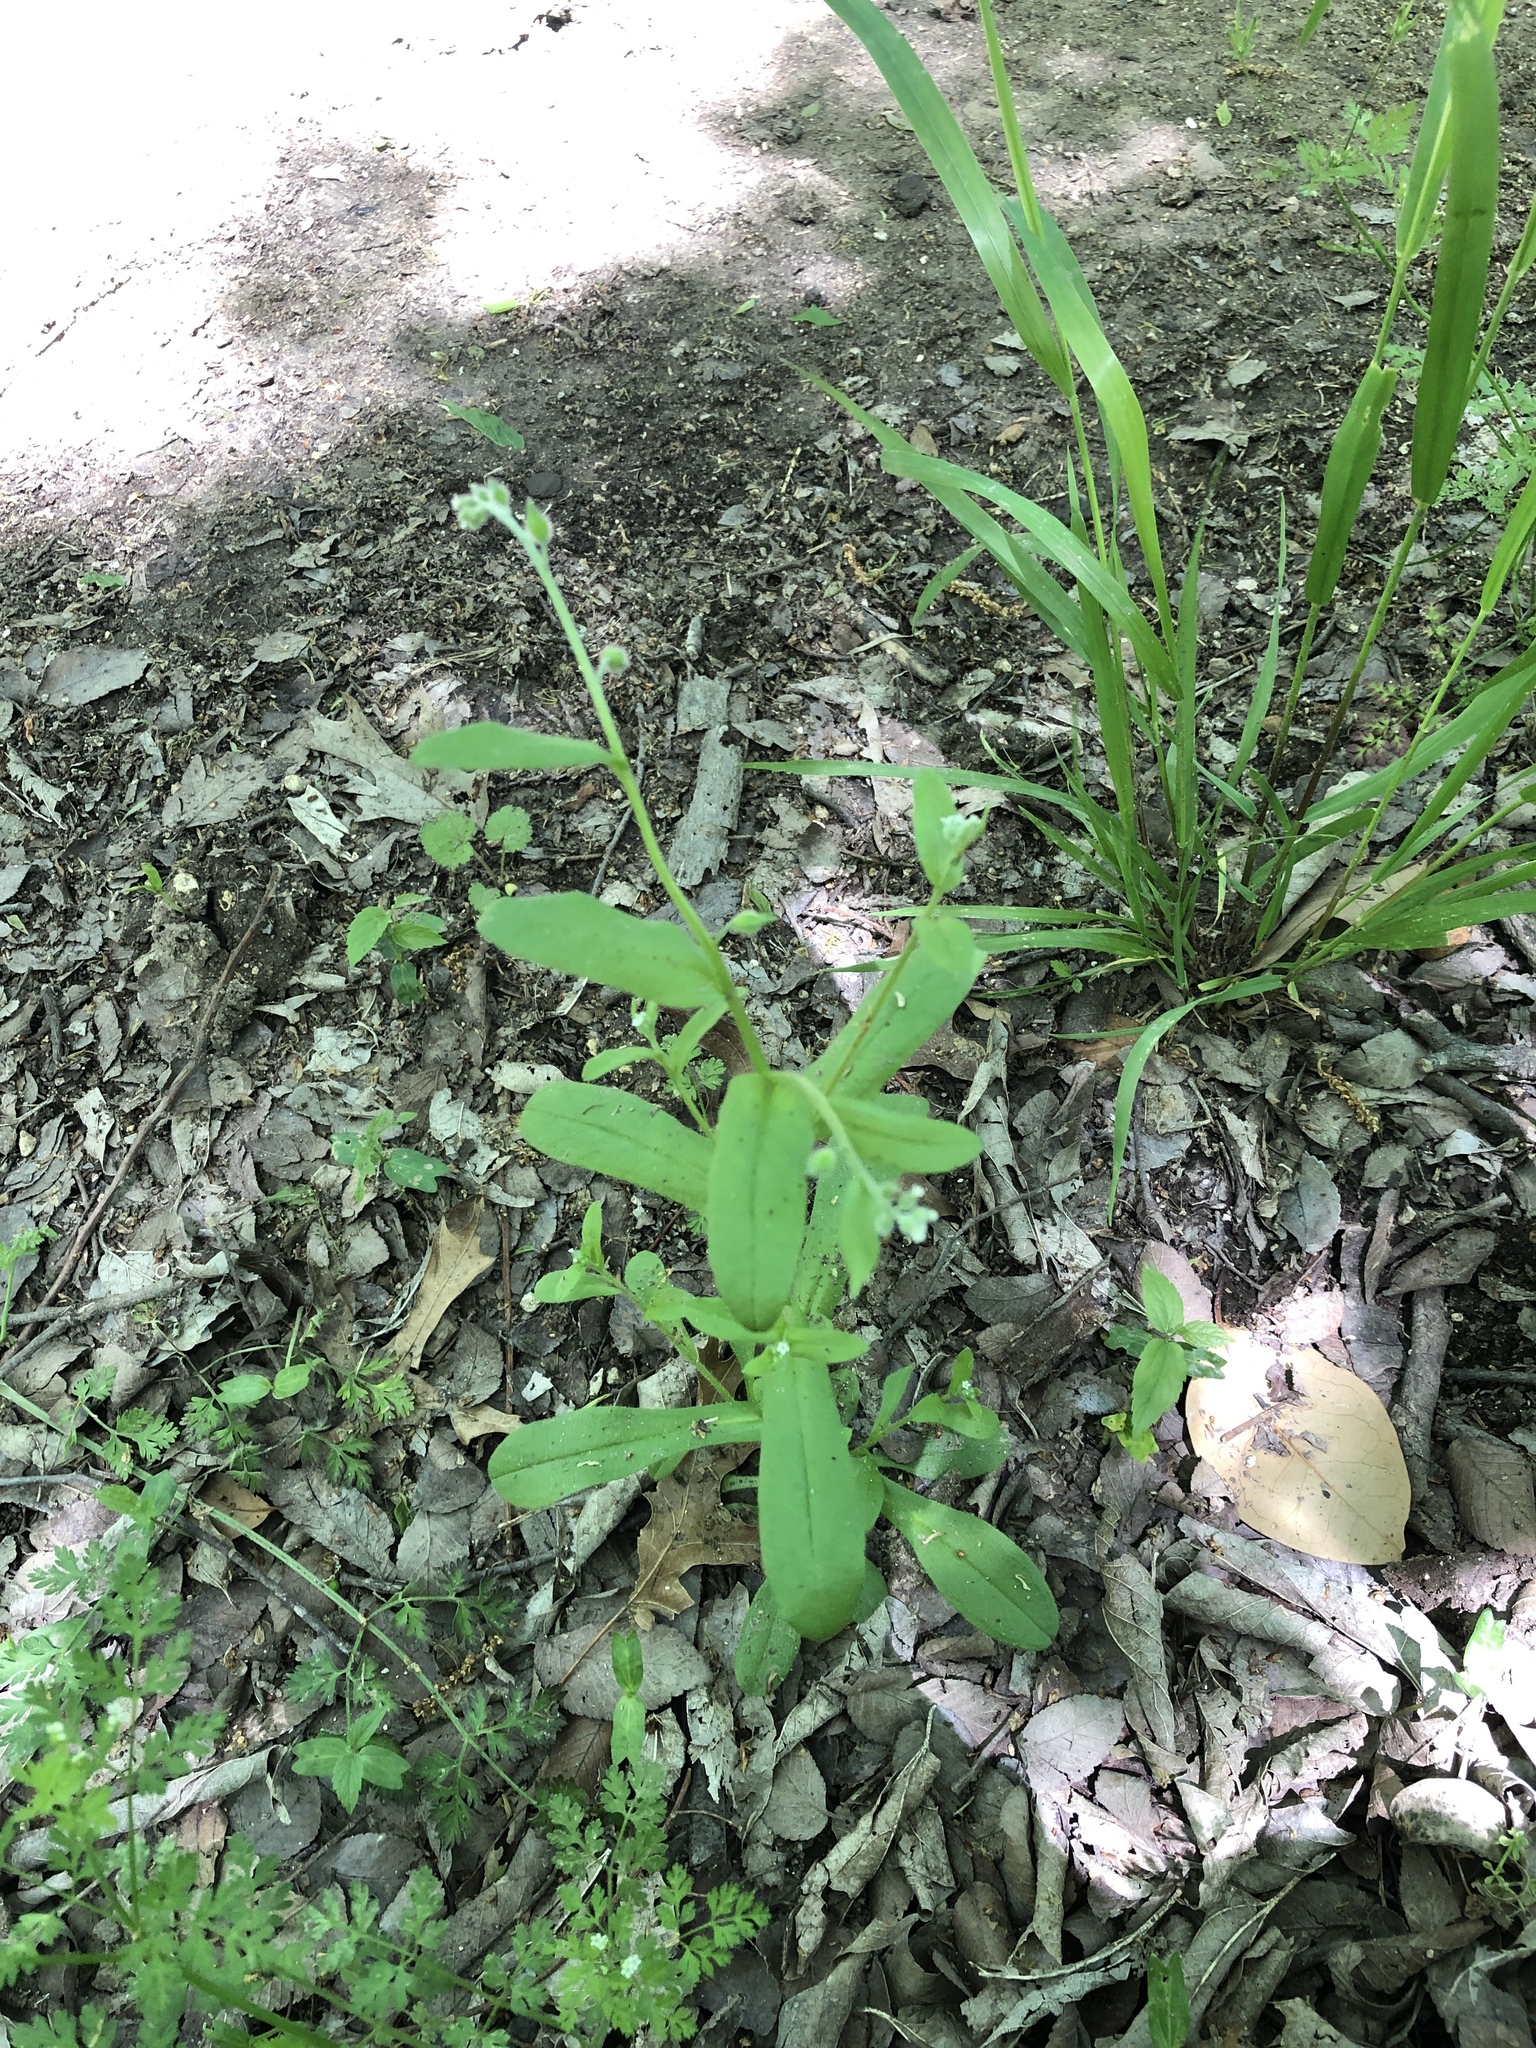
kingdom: Plantae
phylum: Tracheophyta
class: Magnoliopsida
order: Boraginales
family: Boraginaceae
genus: Myosotis
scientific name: Myosotis macrosperma
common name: Large-seed forget-me-not
